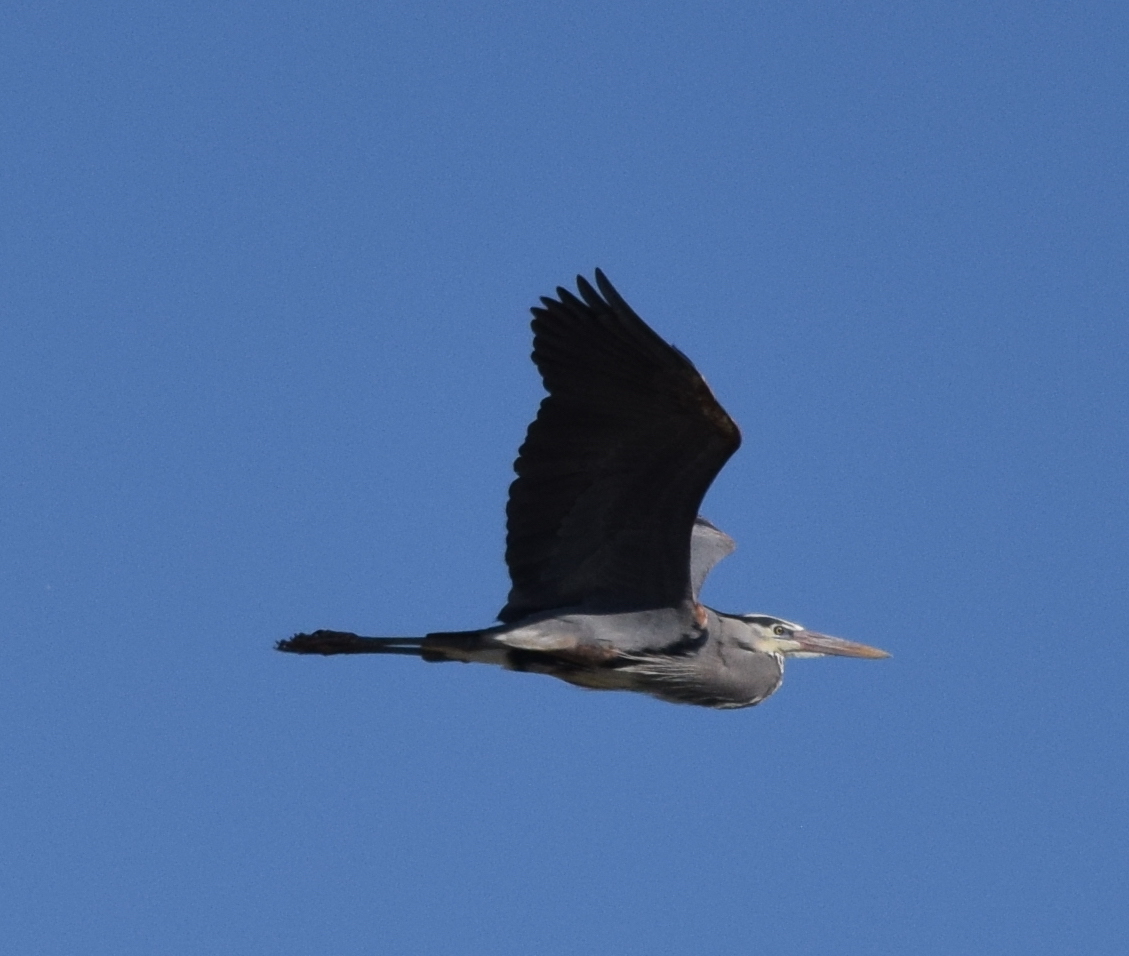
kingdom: Animalia
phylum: Chordata
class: Aves
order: Pelecaniformes
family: Ardeidae
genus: Ardea
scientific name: Ardea herodias
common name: Great blue heron
